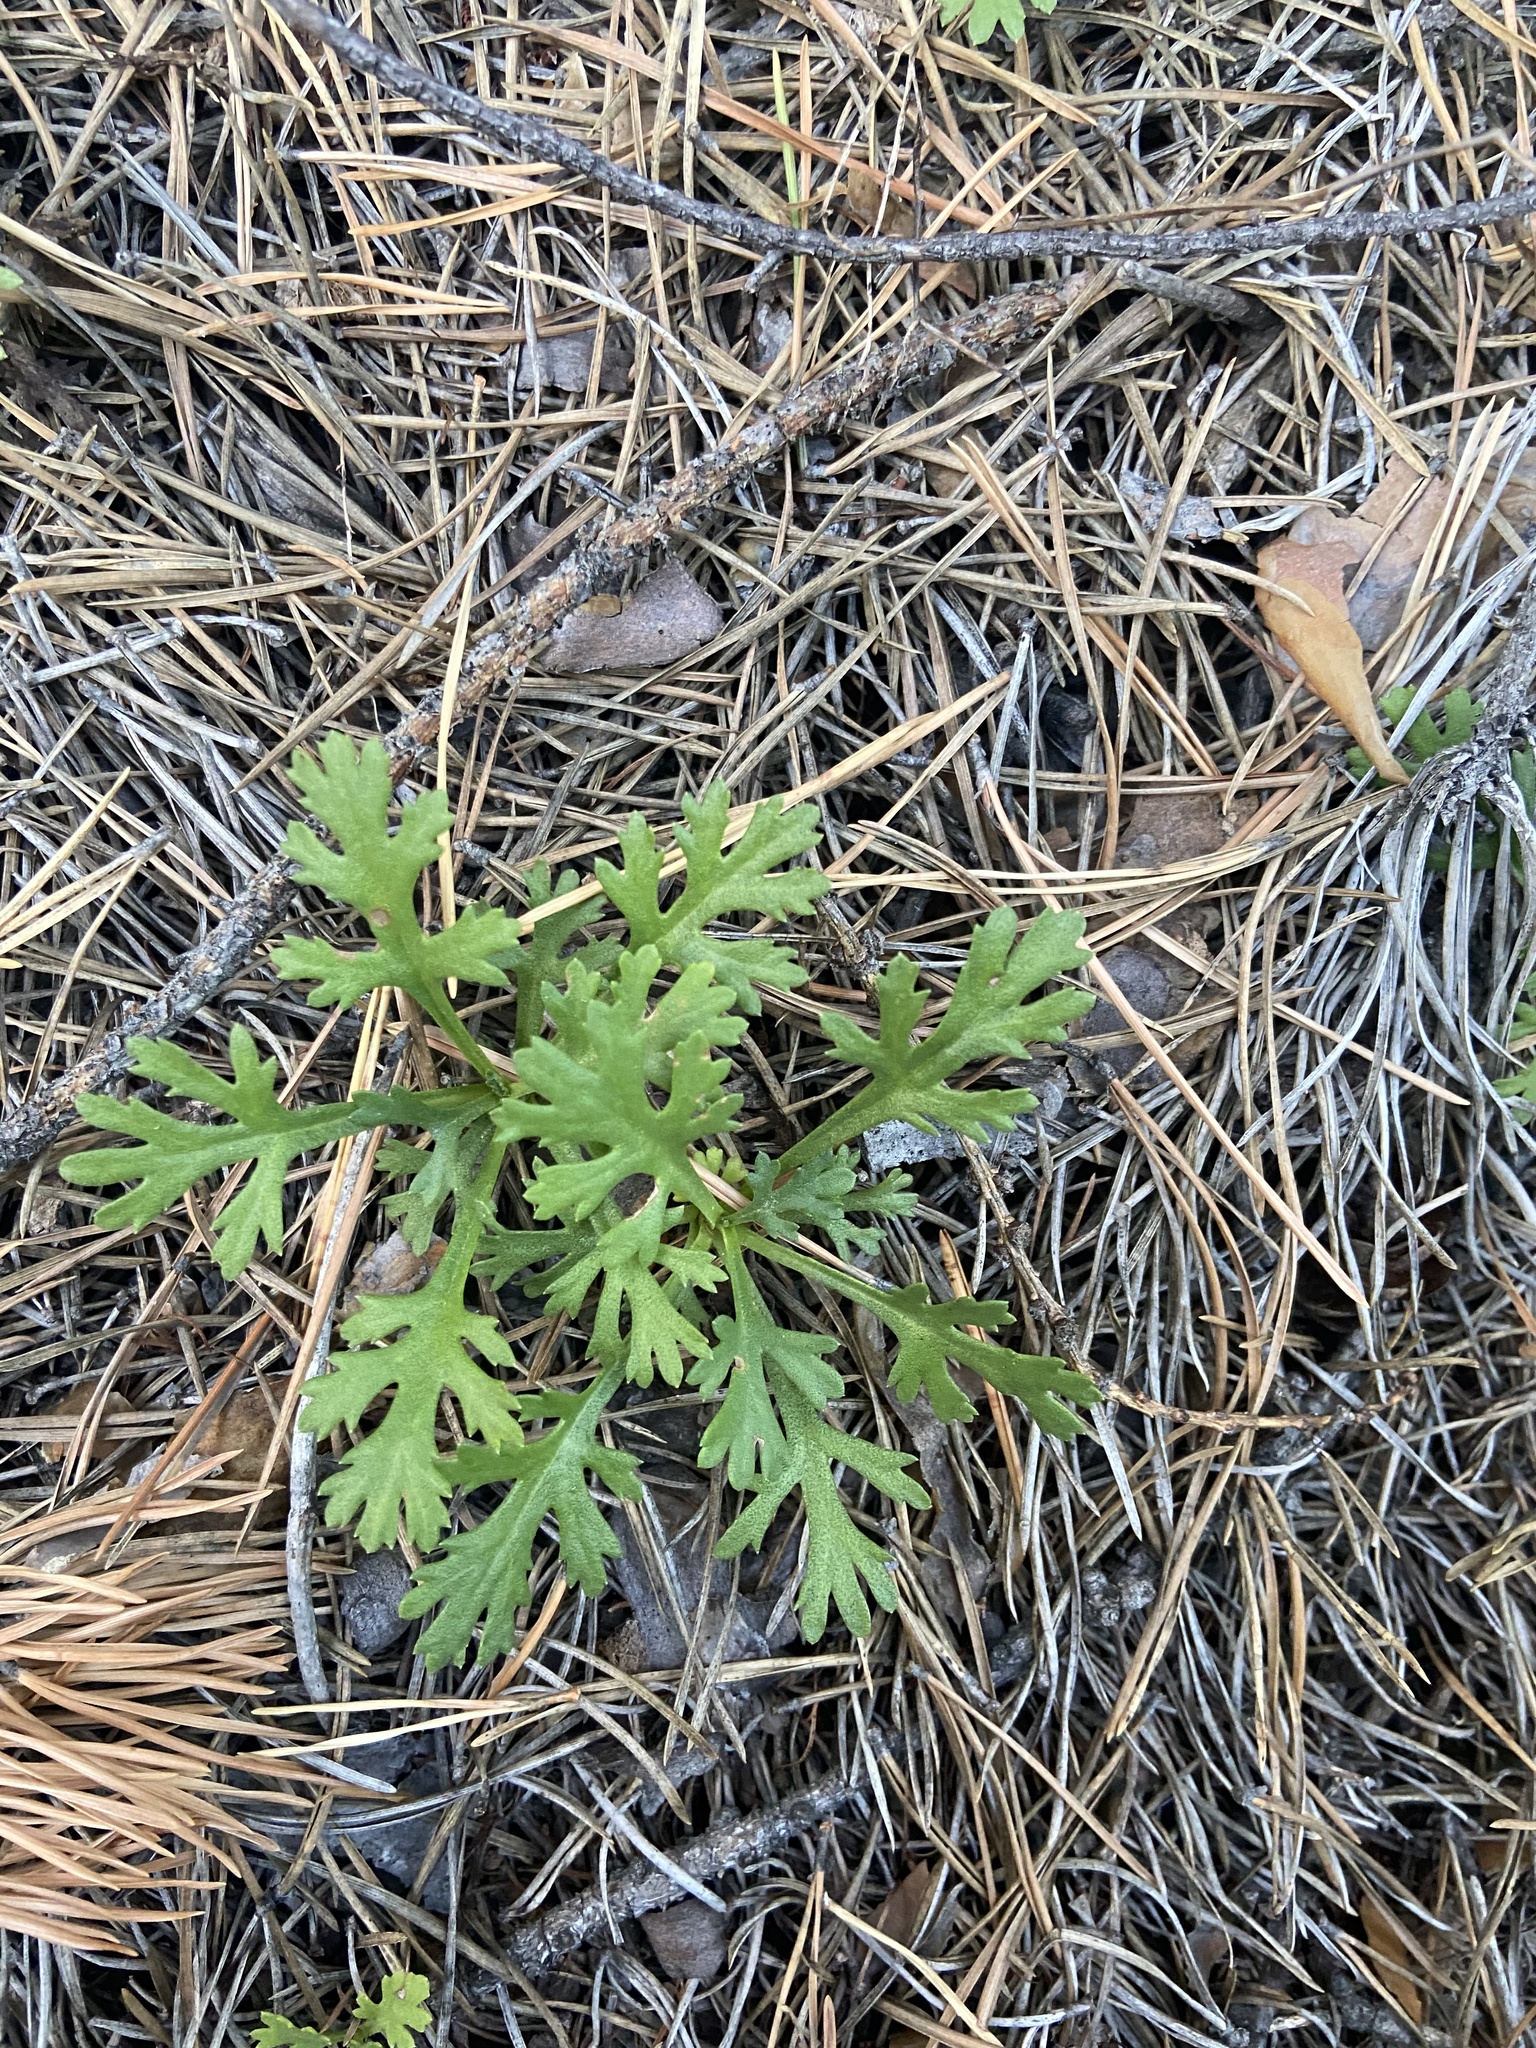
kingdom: Plantae
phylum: Tracheophyta
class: Magnoliopsida
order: Asterales
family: Asteraceae
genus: Chrysanthemum
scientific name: Chrysanthemum zawadzkii
